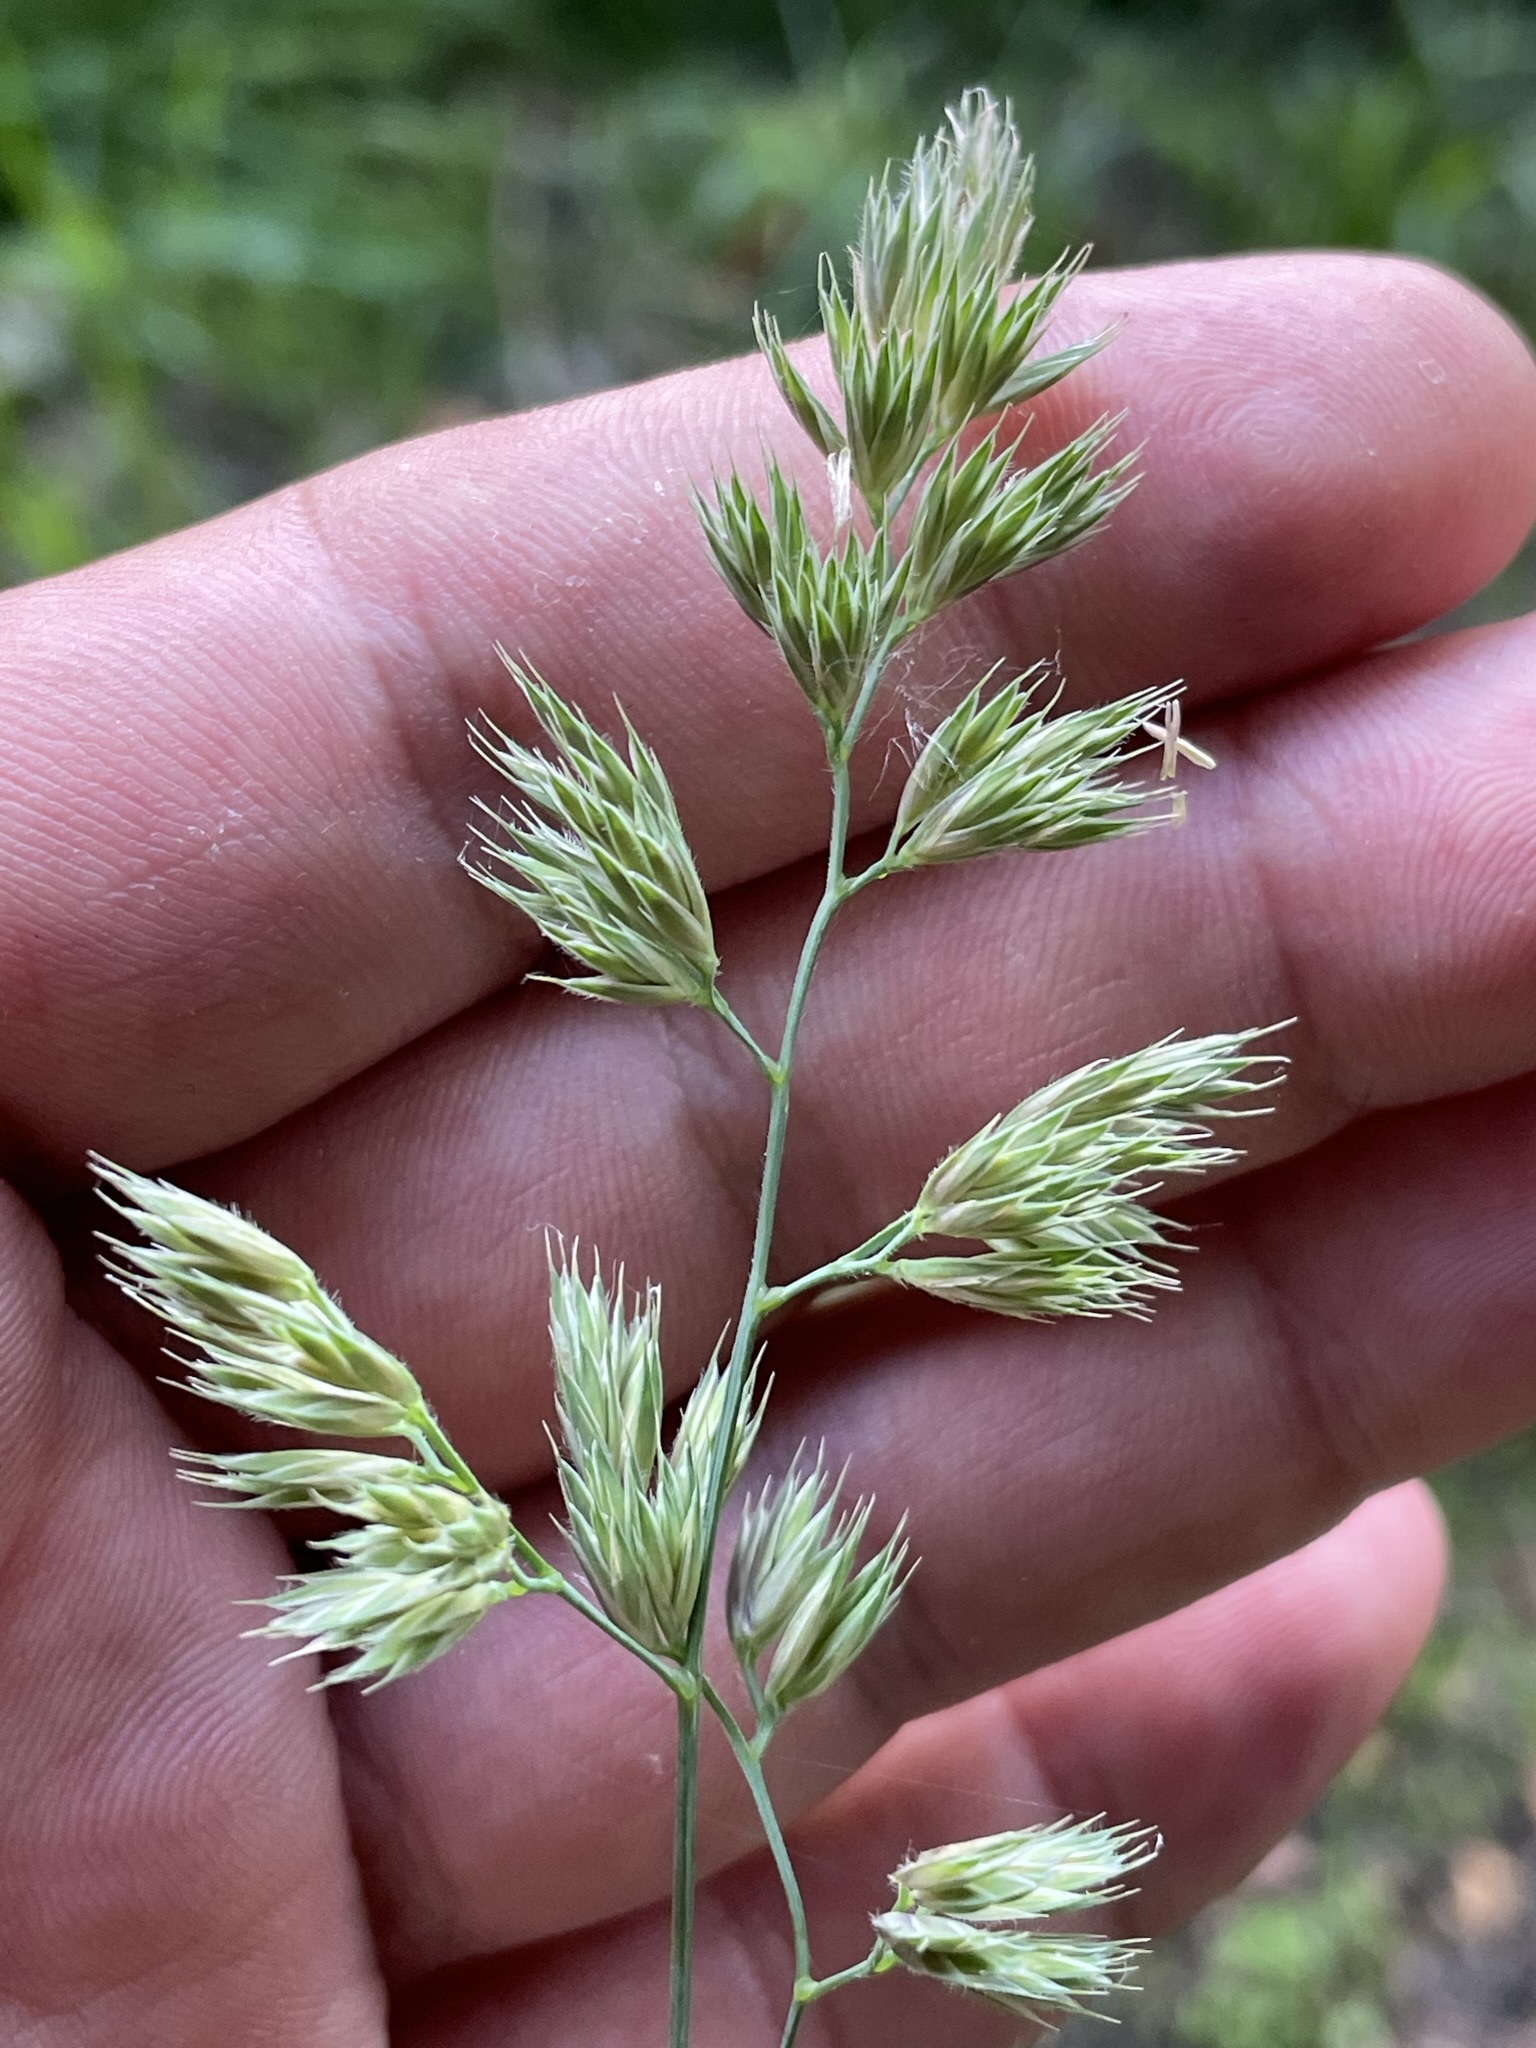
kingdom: Plantae
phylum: Tracheophyta
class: Liliopsida
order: Poales
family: Poaceae
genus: Dactylis
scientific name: Dactylis glomerata
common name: Orchardgrass
